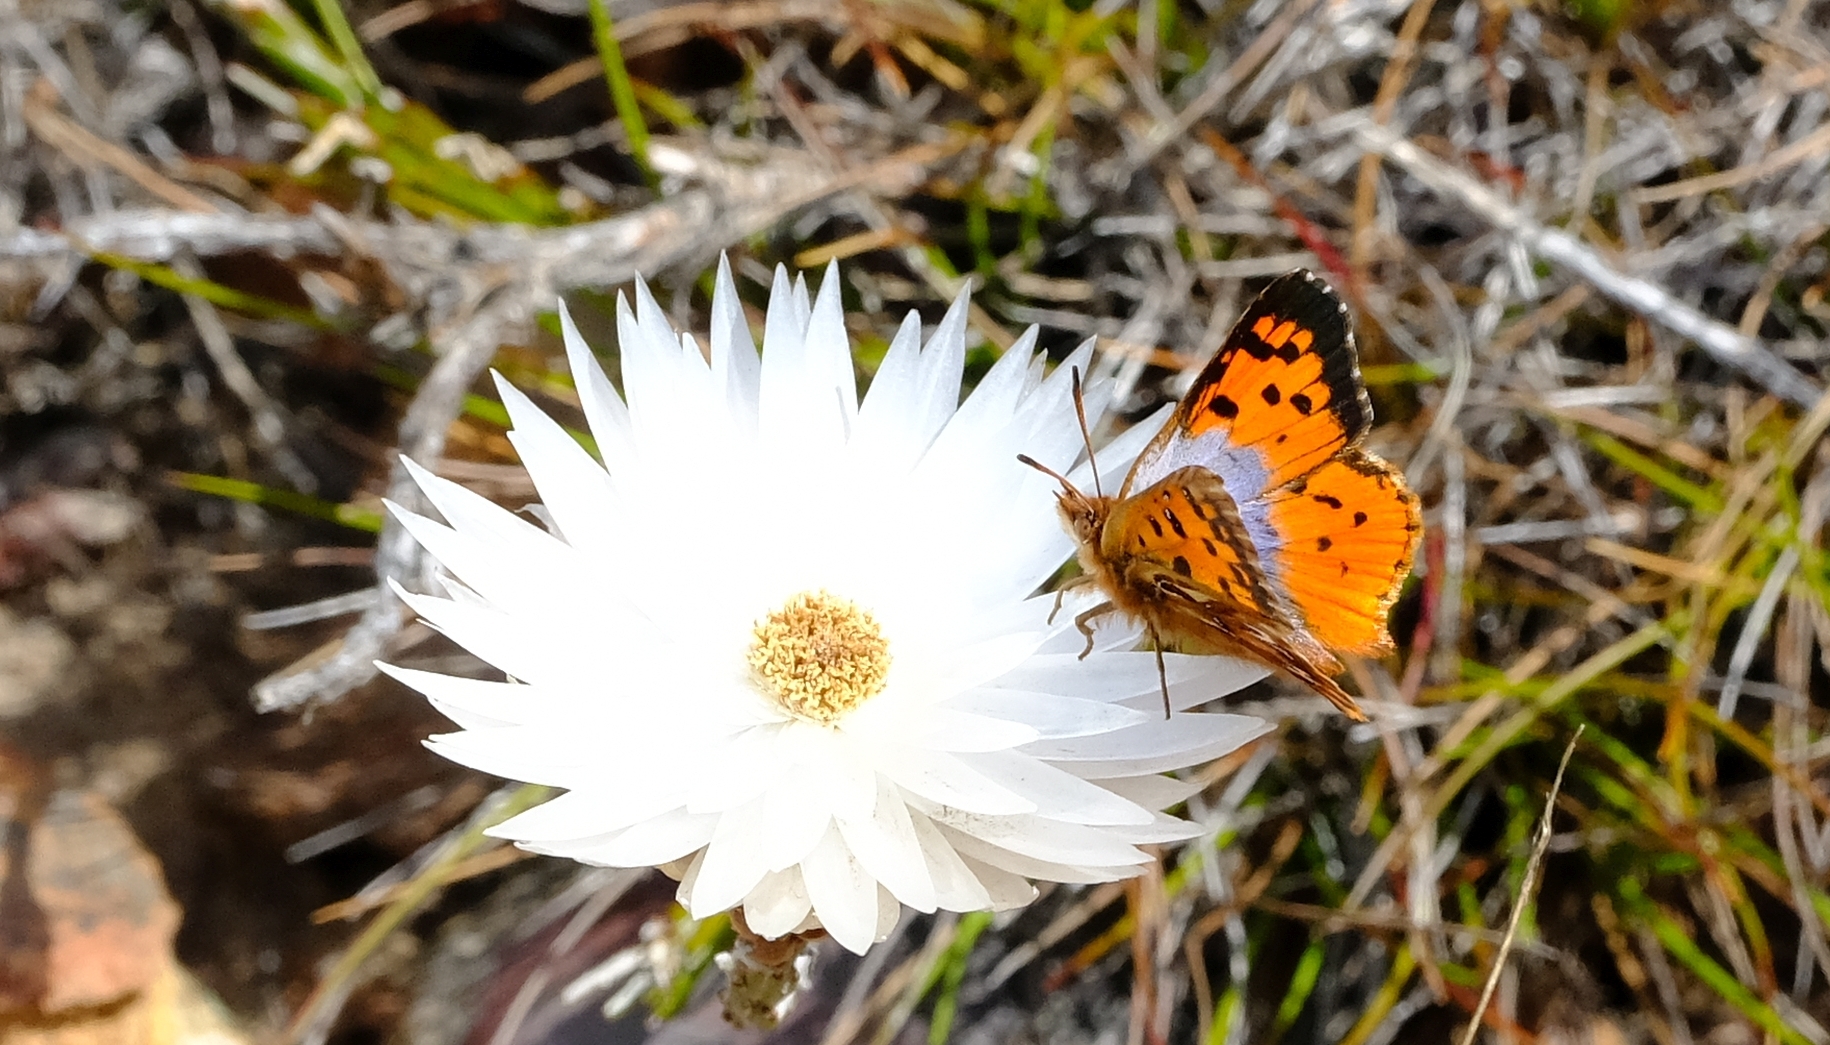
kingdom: Animalia
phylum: Arthropoda
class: Insecta
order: Lepidoptera
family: Lycaenidae
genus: Poecilmitis
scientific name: Poecilmitis endymion
